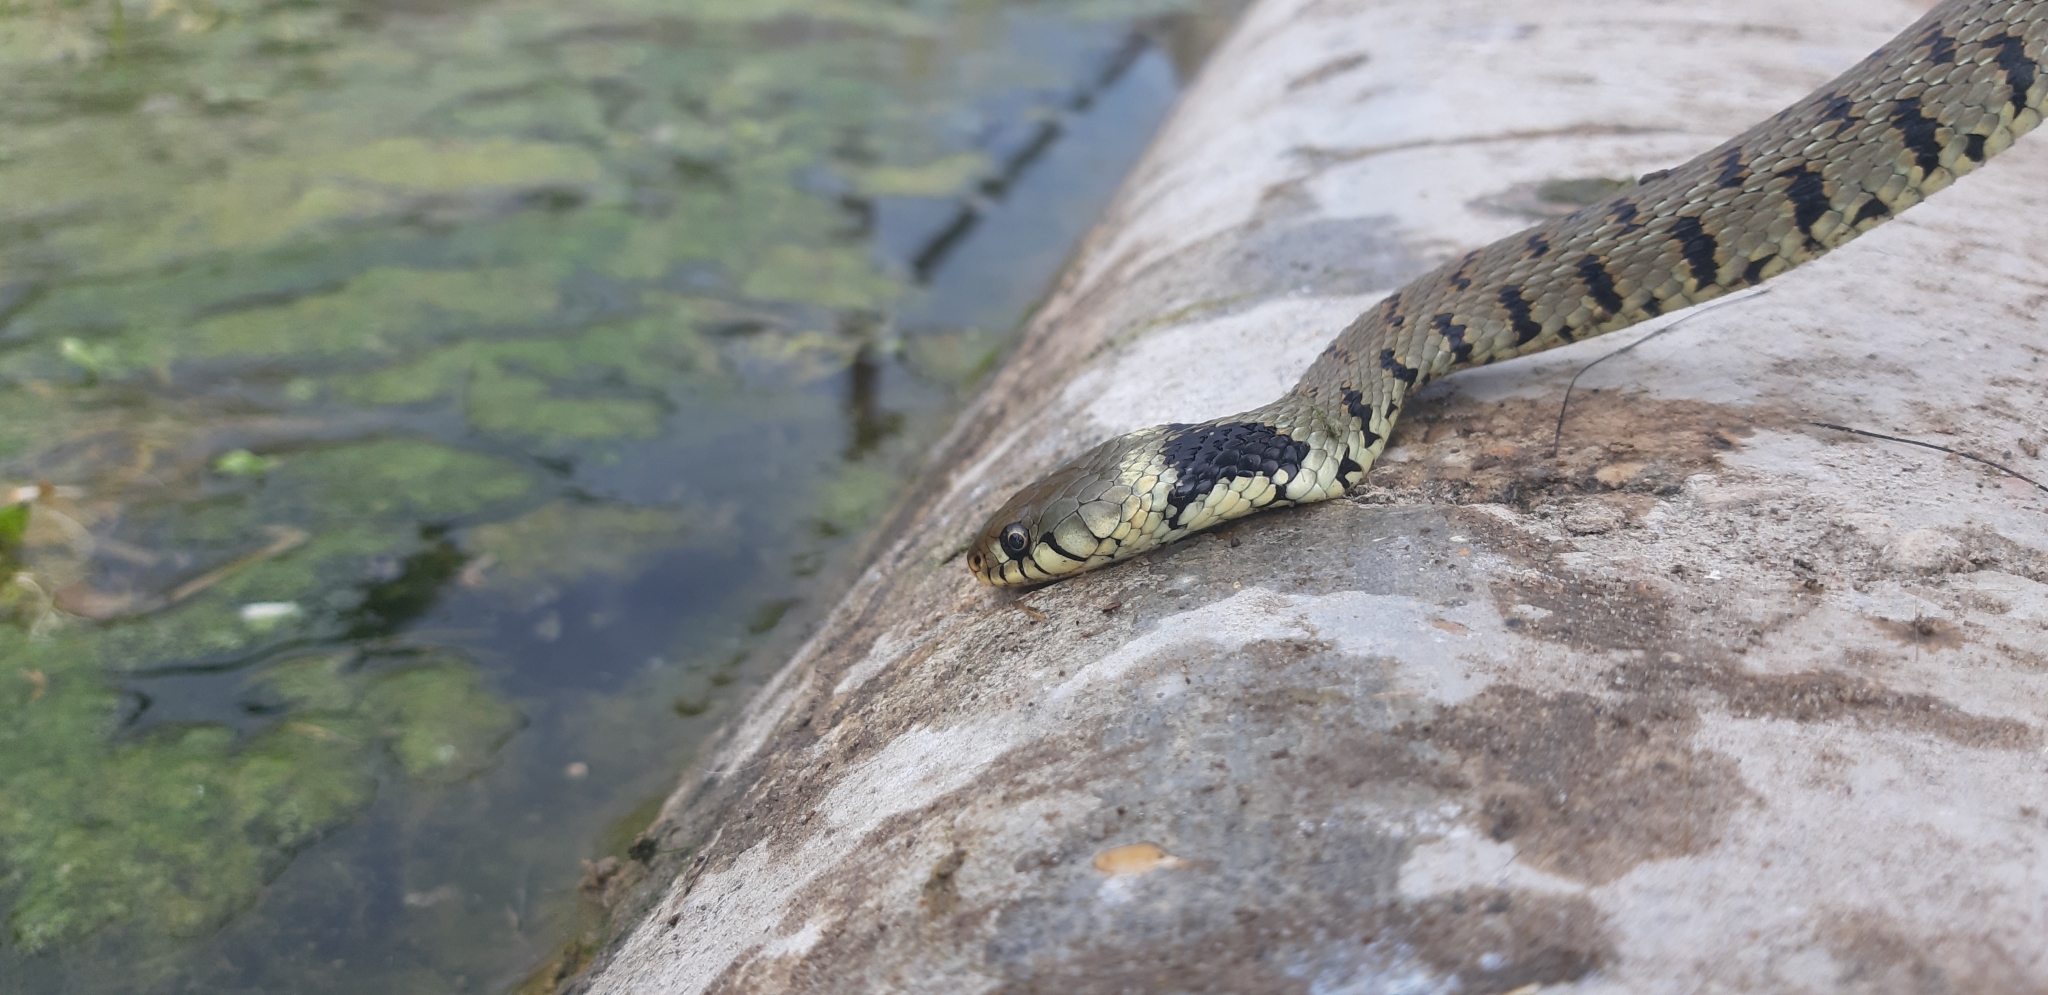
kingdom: Animalia
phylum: Chordata
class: Squamata
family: Colubridae
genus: Natrix
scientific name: Natrix helvetica
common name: Banded grass snake
